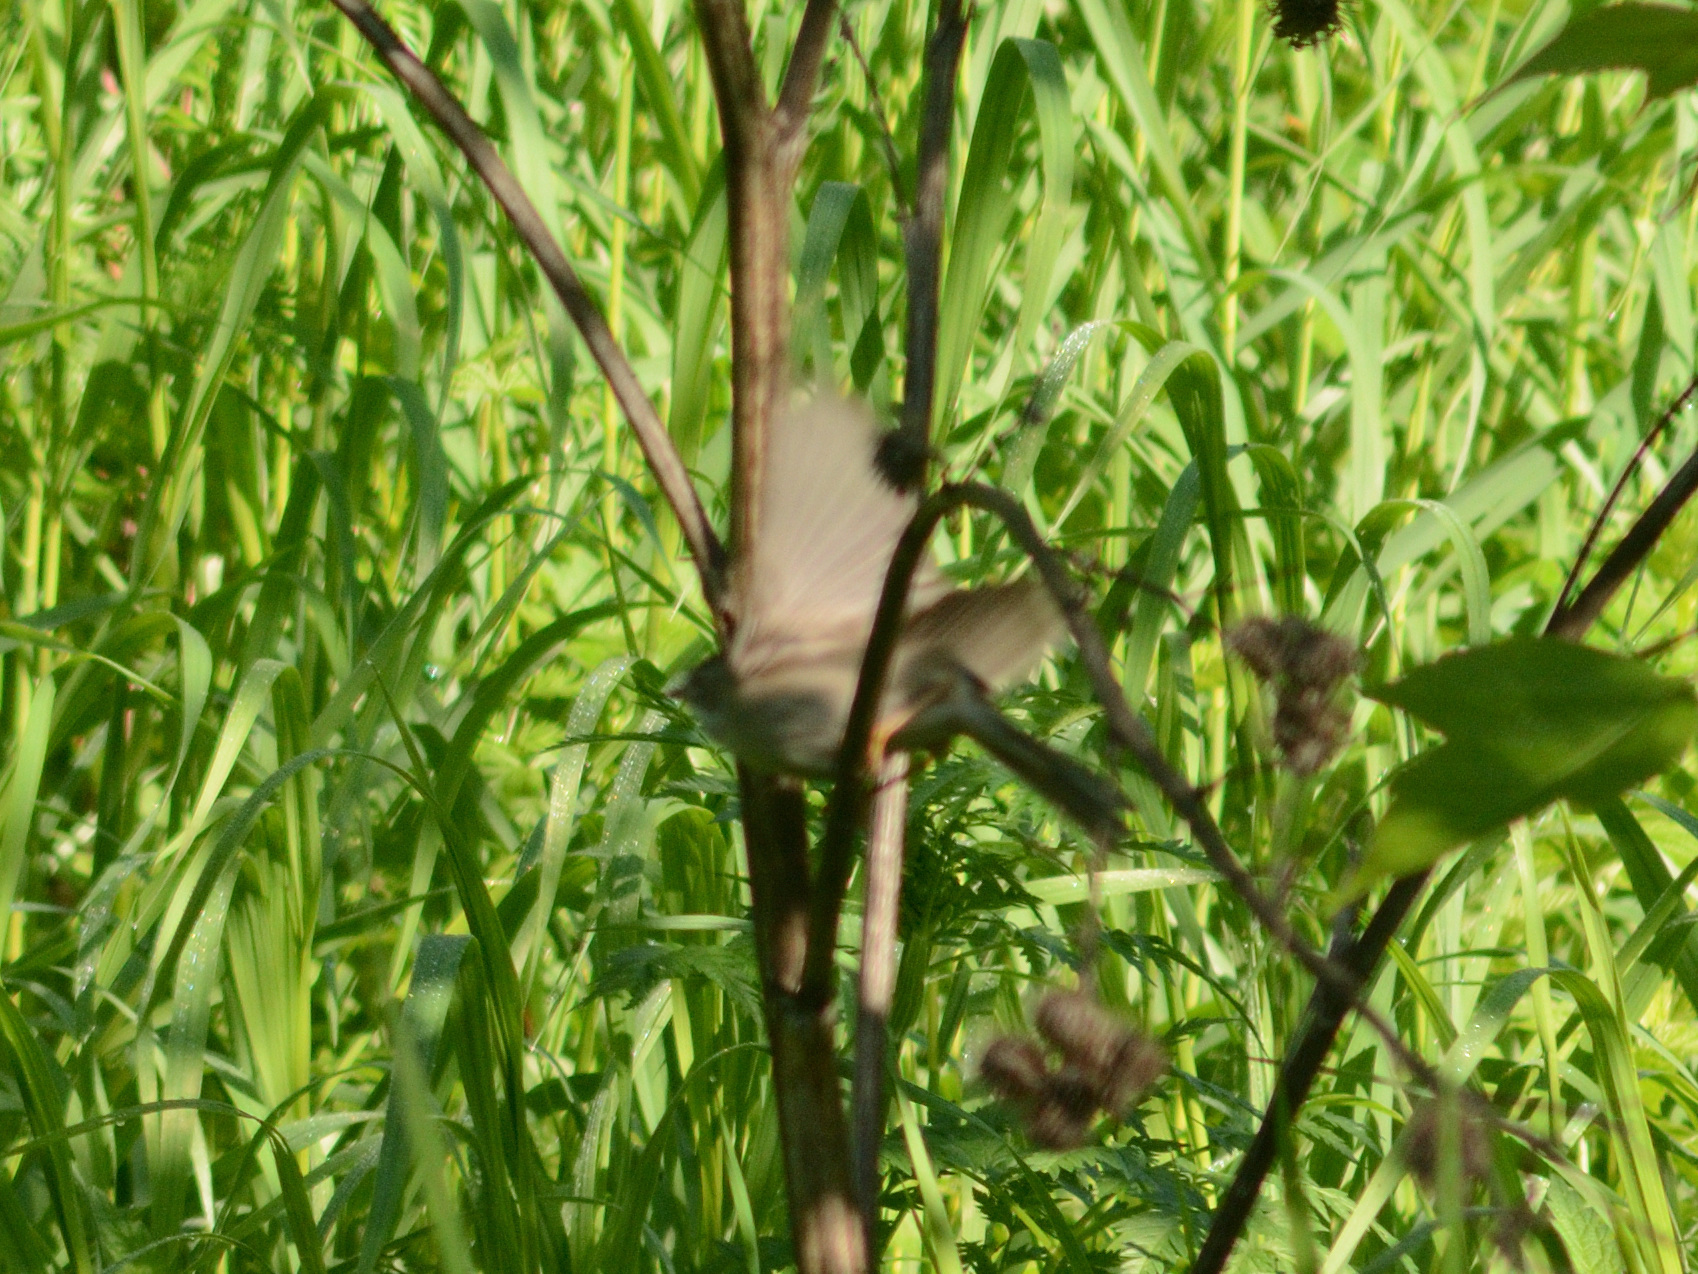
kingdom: Animalia
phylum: Chordata
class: Aves
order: Passeriformes
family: Sylviidae
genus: Sylvia
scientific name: Sylvia communis
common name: Common whitethroat
